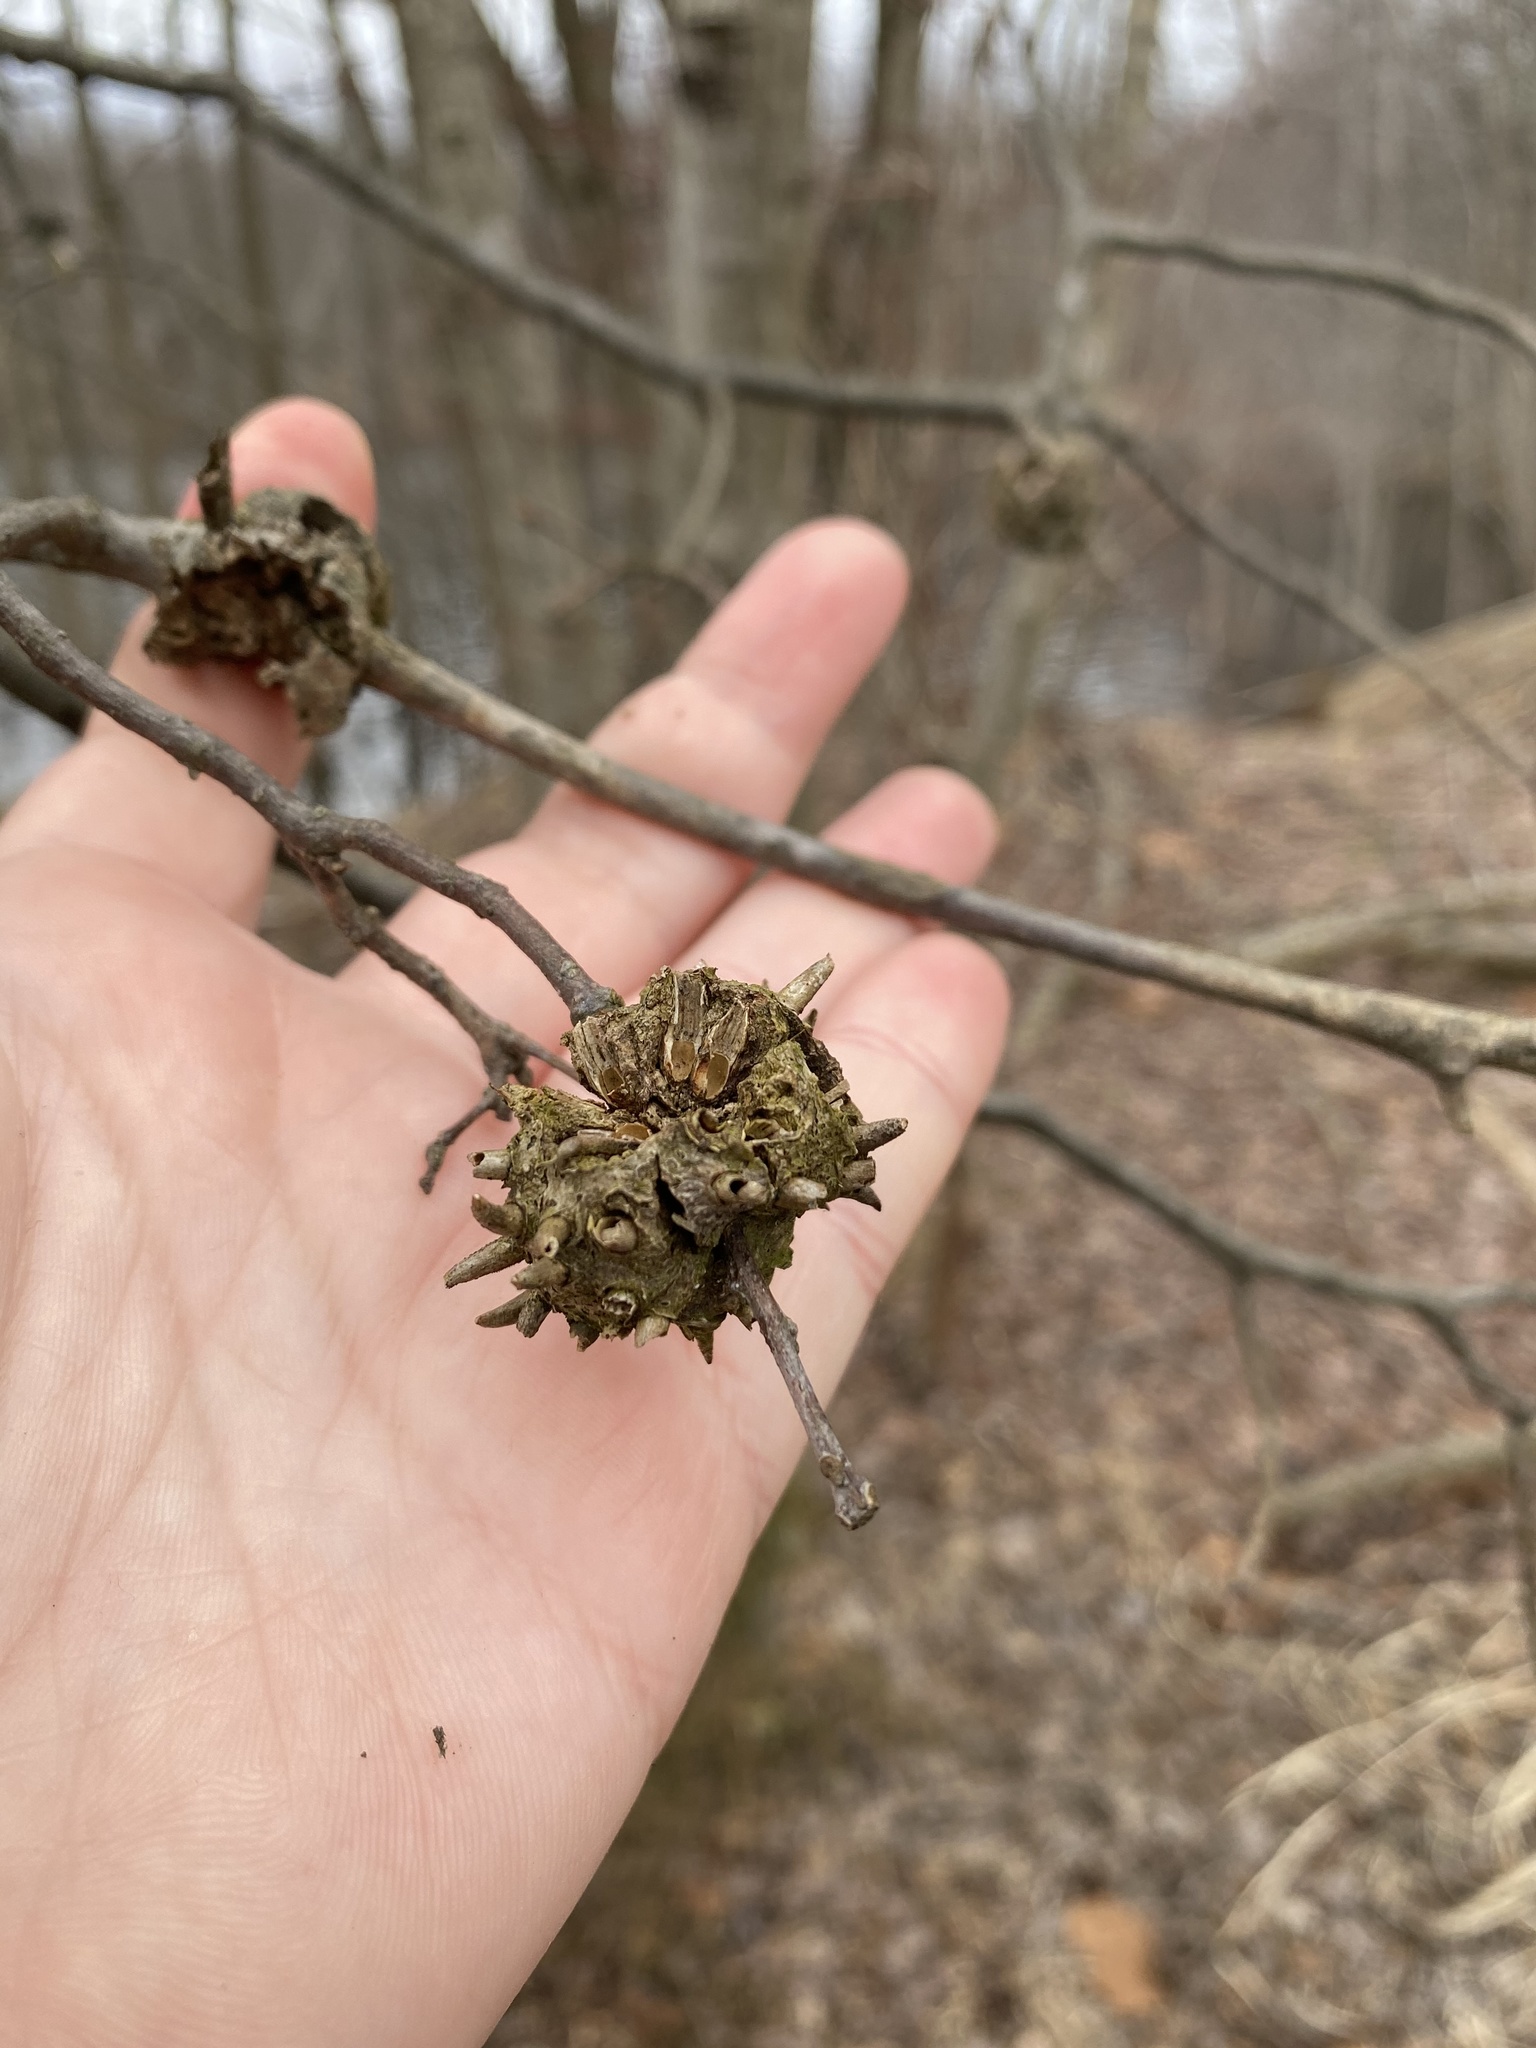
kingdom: Animalia
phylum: Arthropoda
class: Insecta
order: Hymenoptera
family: Cynipidae
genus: Callirhytis
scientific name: Callirhytis
